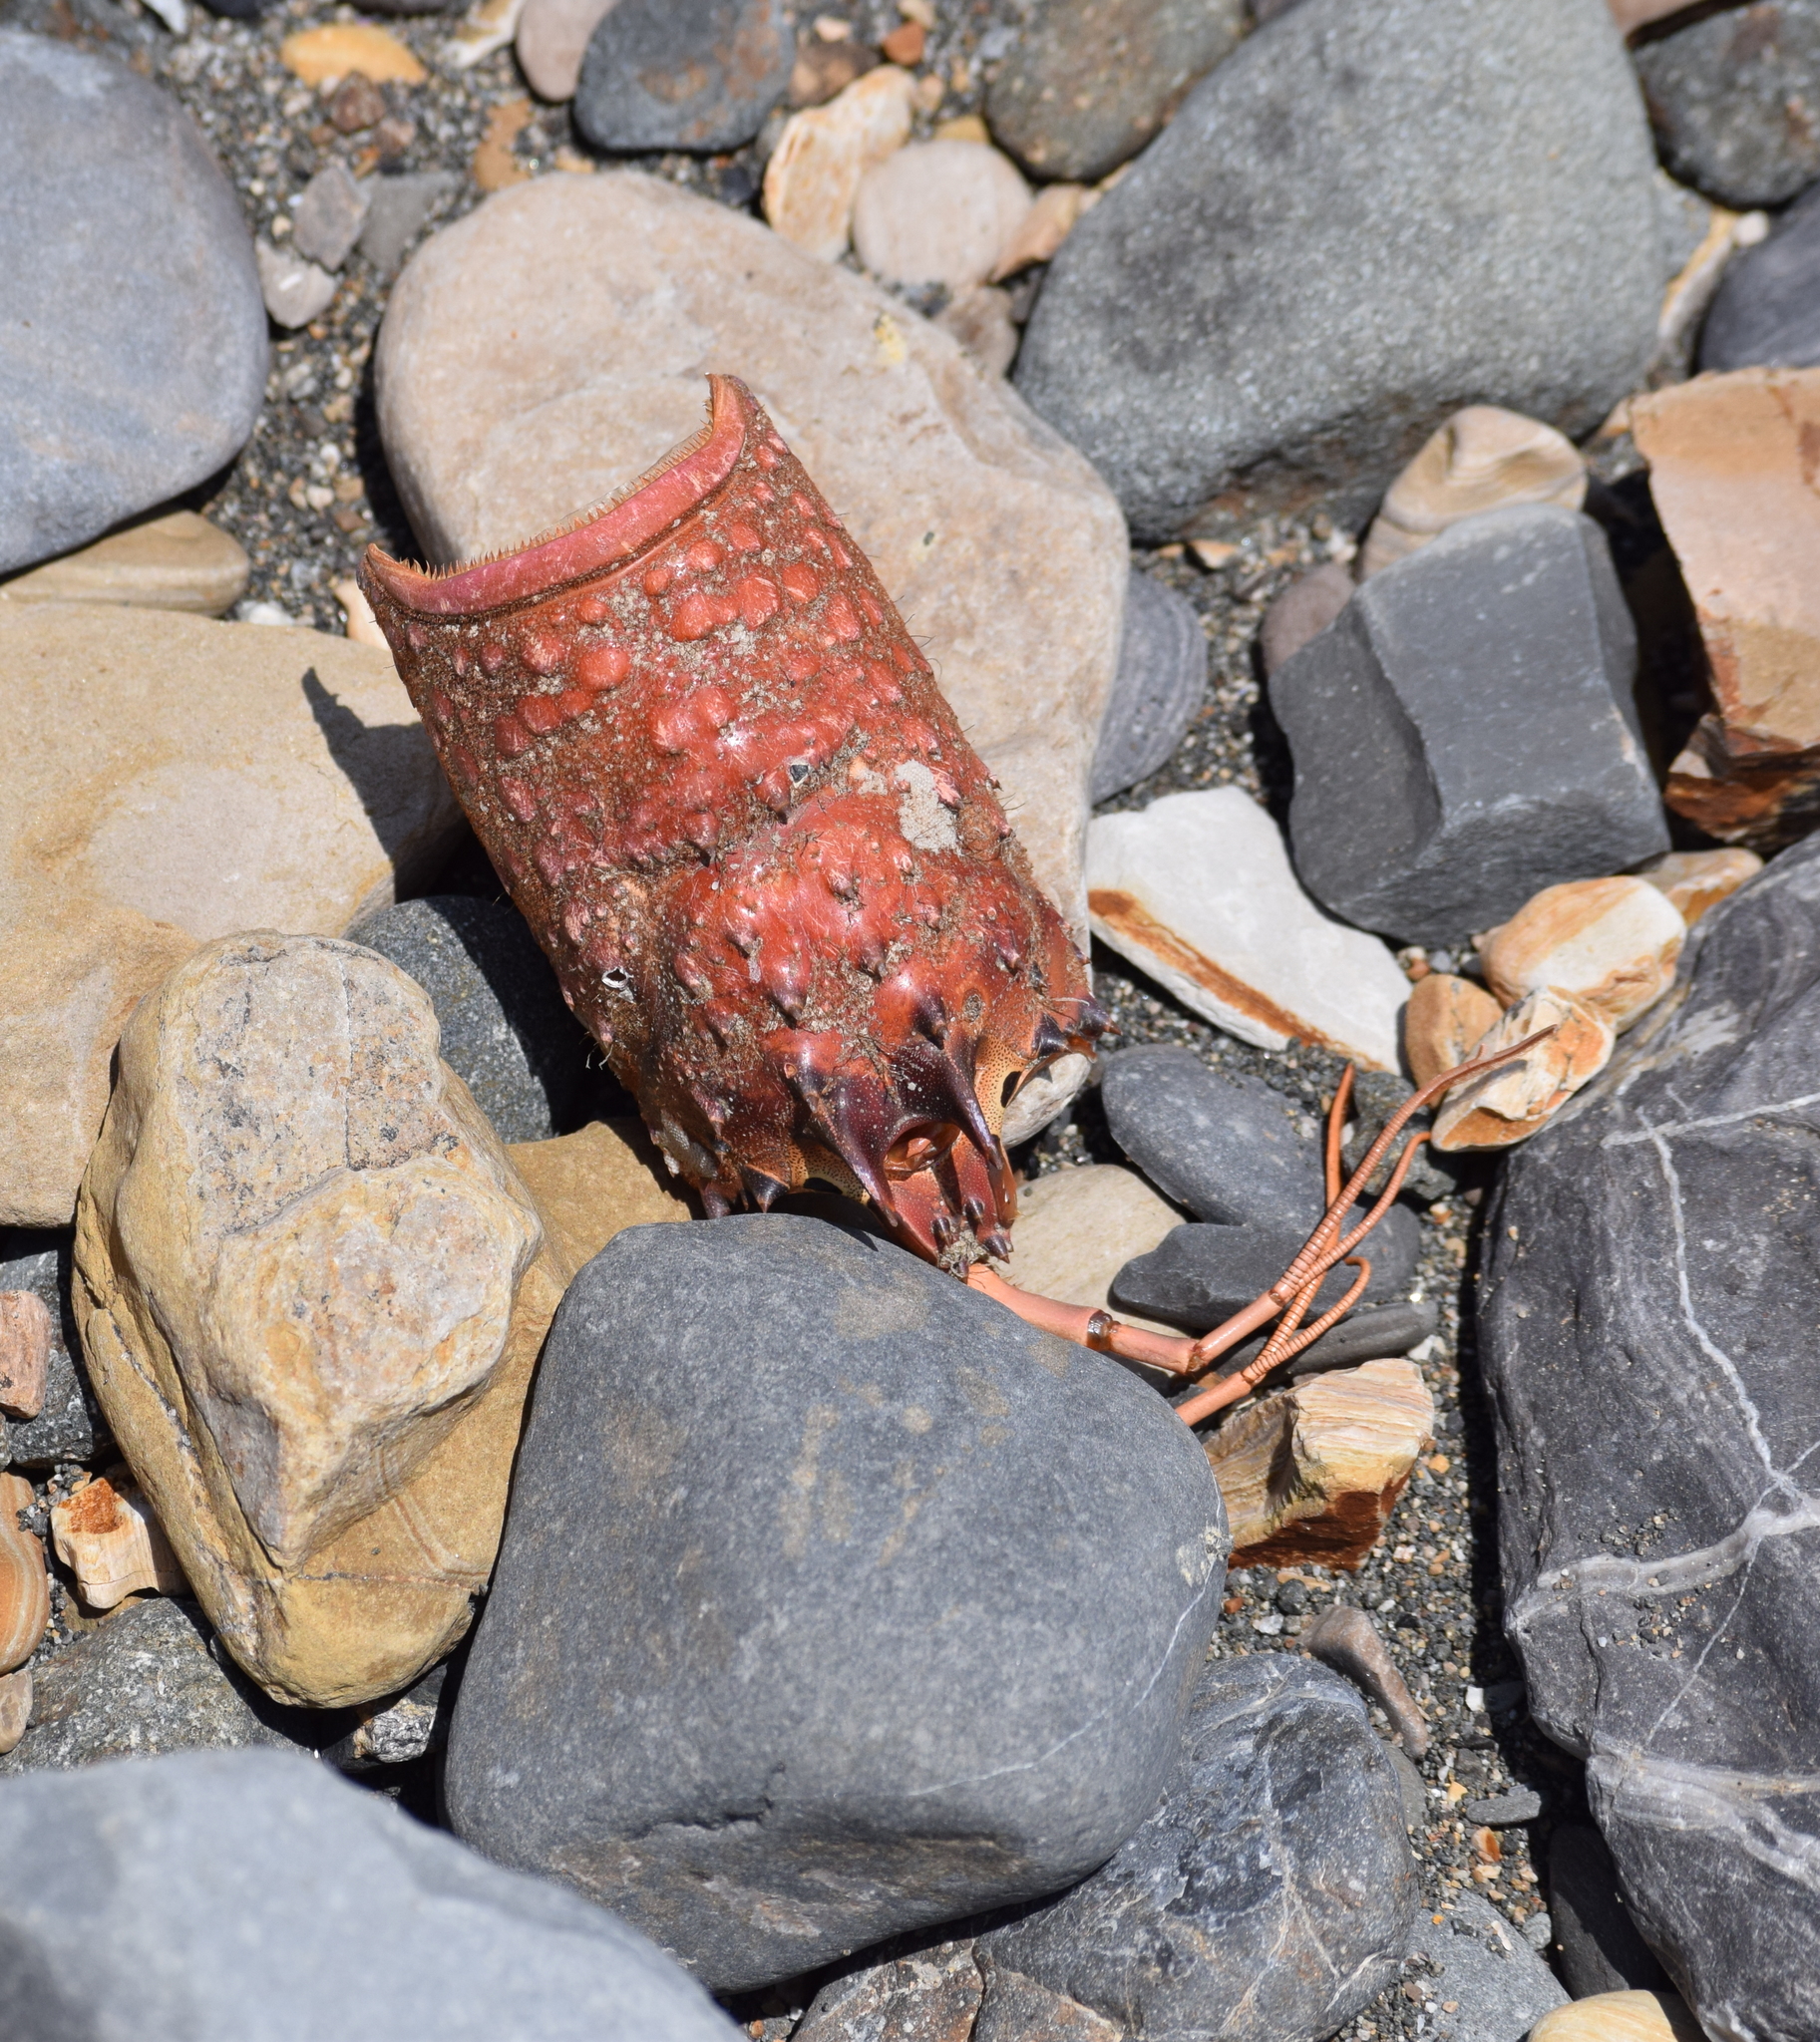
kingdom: Animalia
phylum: Arthropoda
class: Malacostraca
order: Decapoda
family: Palinuridae
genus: Panulirus
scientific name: Panulirus interruptus
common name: California spiny lobster
